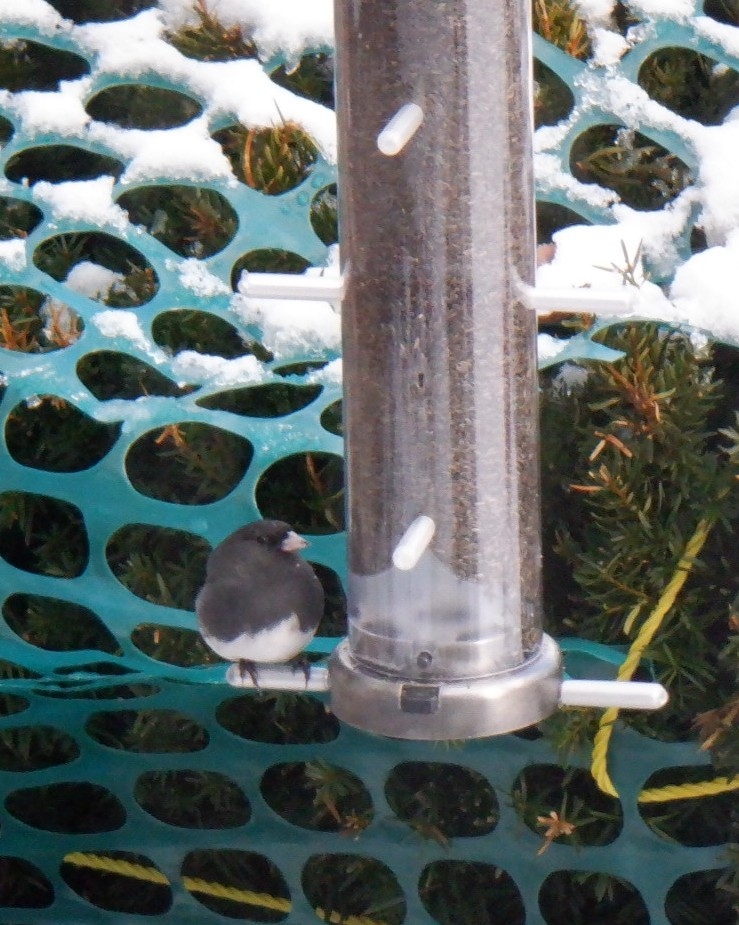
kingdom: Animalia
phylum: Chordata
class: Aves
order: Passeriformes
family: Passerellidae
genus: Junco
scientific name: Junco hyemalis
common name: Dark-eyed junco
